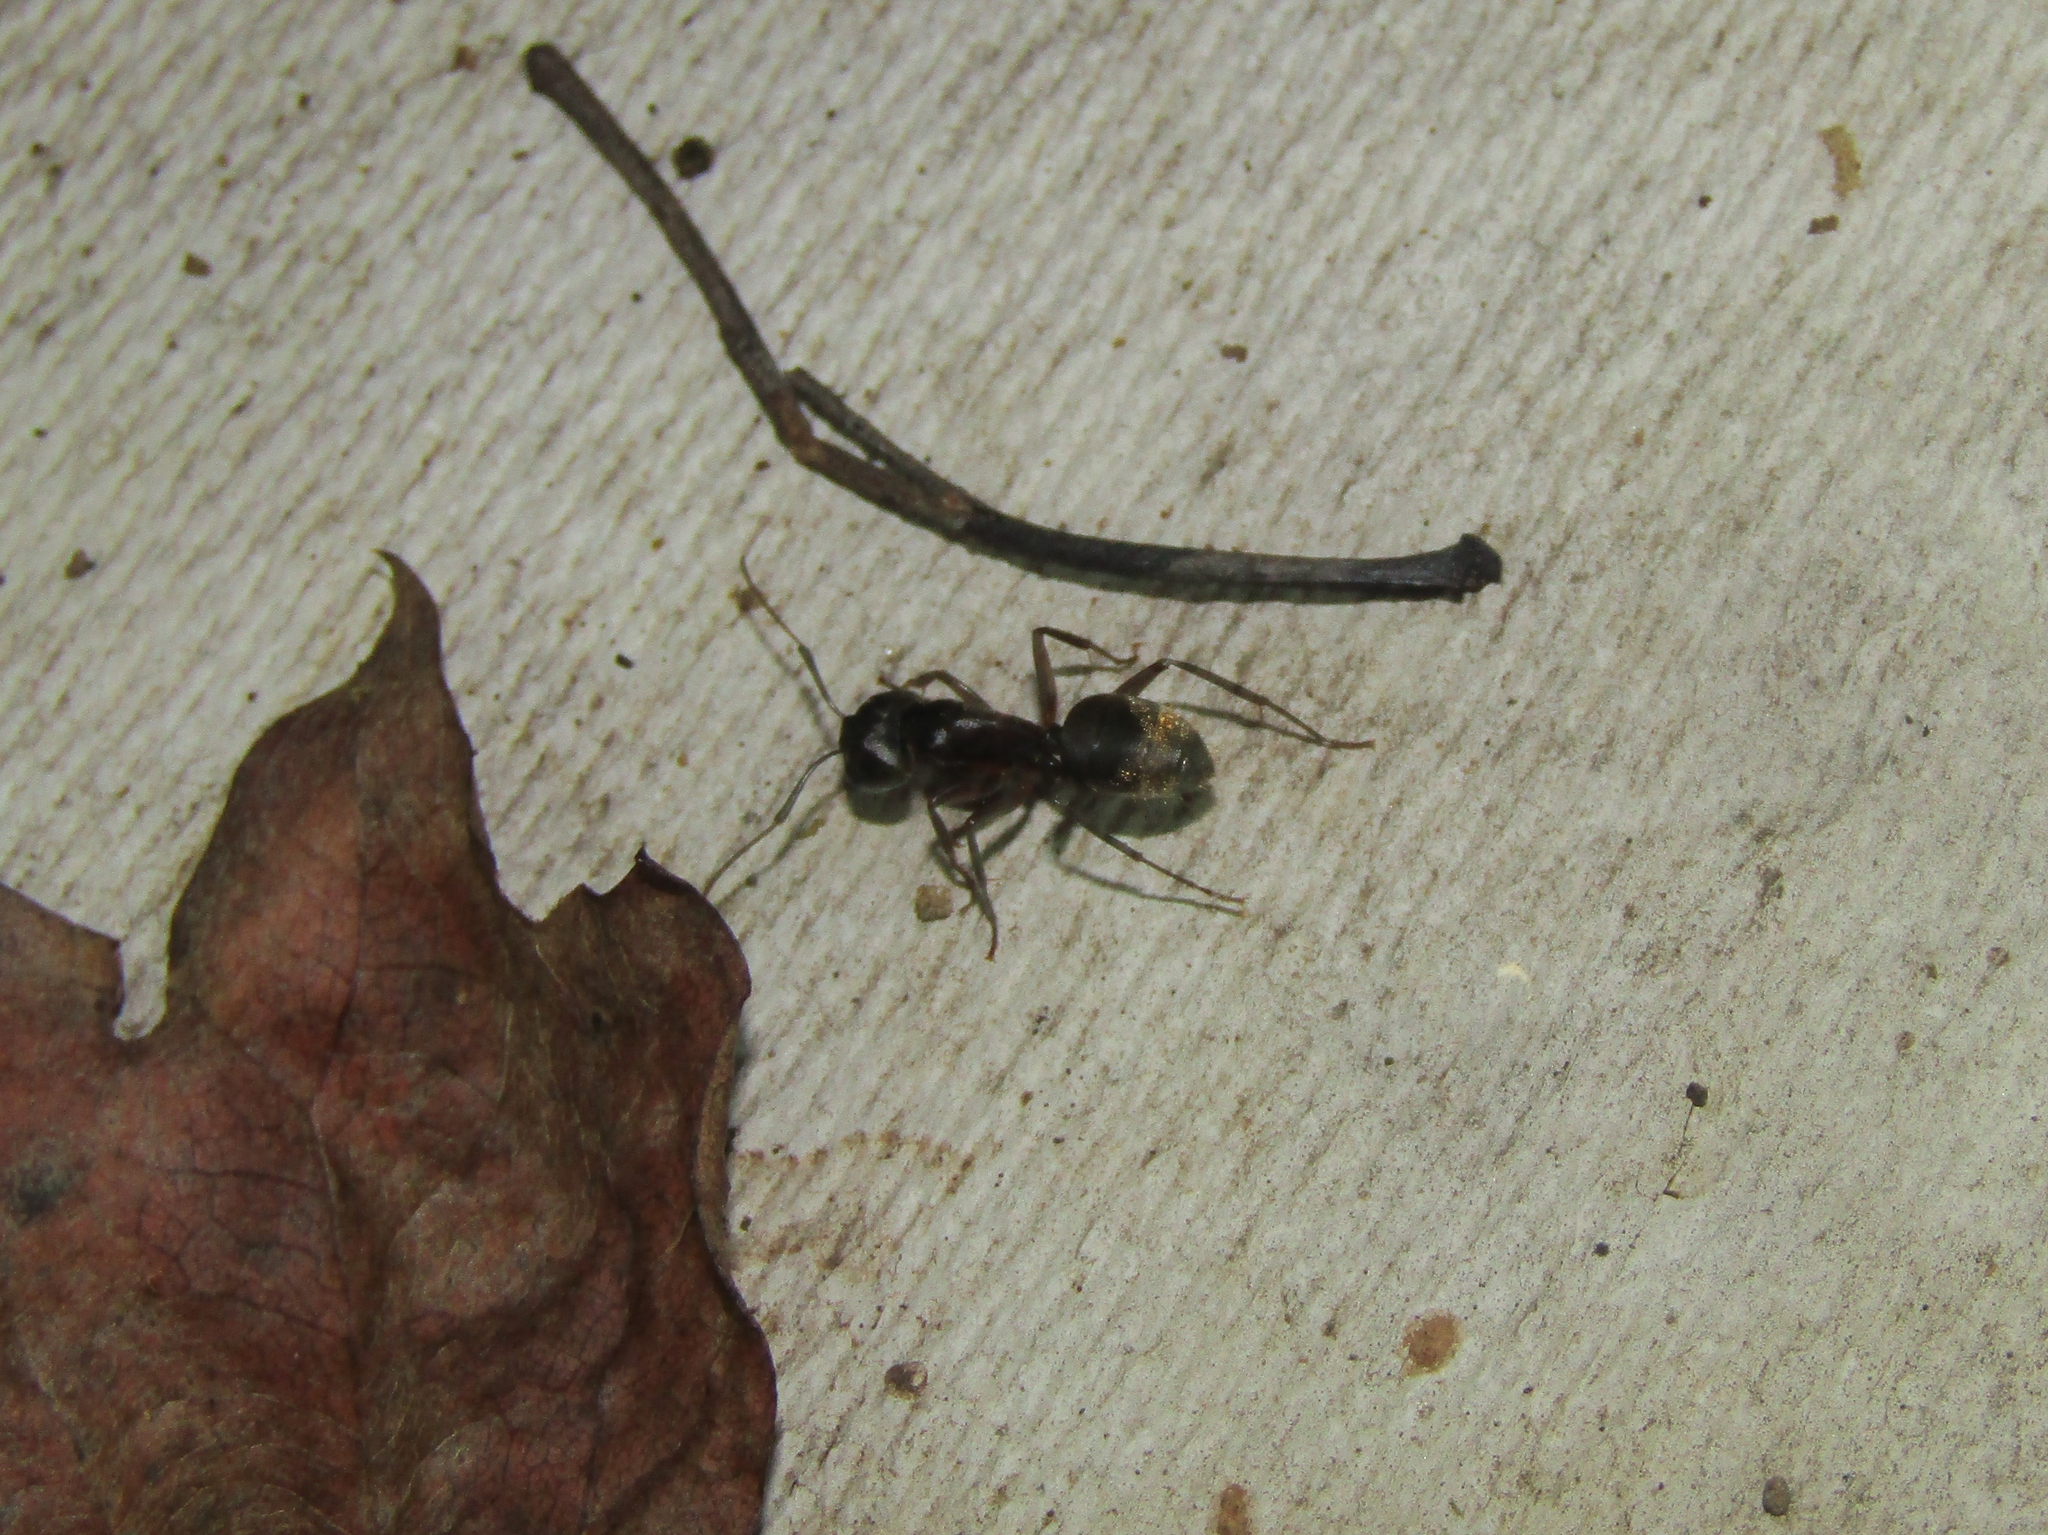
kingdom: Animalia
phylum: Arthropoda
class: Insecta
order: Hymenoptera
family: Formicidae
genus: Camponotus
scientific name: Camponotus pennsylvanicus
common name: Black carpenter ant
